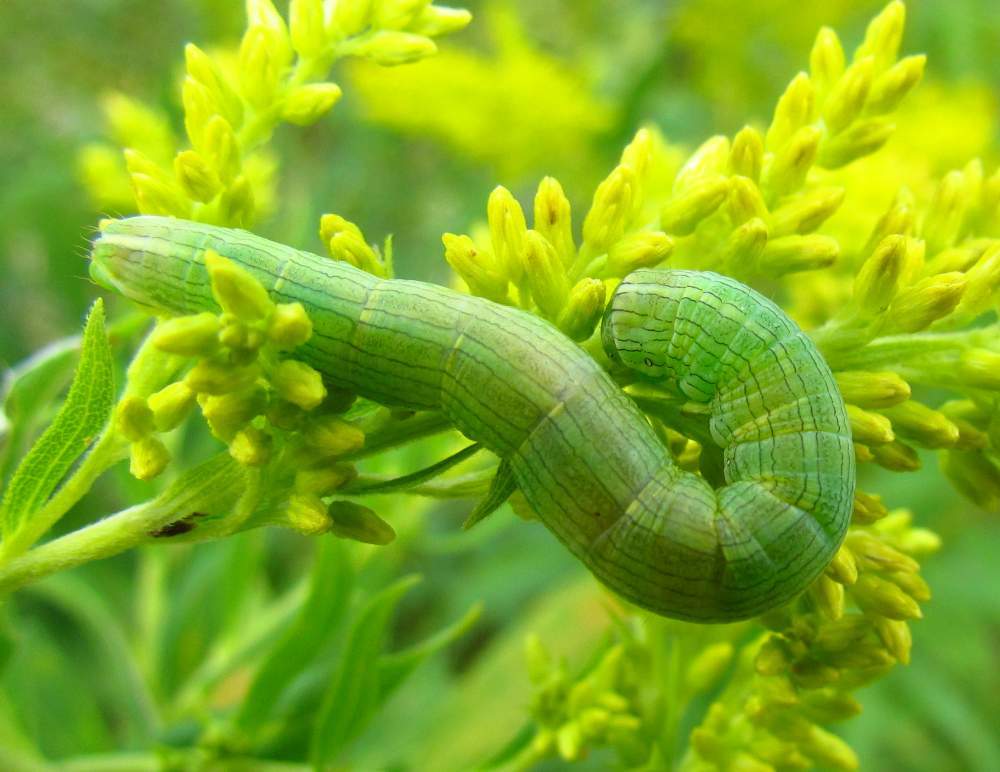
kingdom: Animalia
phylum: Arthropoda
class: Insecta
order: Lepidoptera
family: Noctuidae
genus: Cucullia
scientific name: Cucullia asteroides
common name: Asteroid moth
